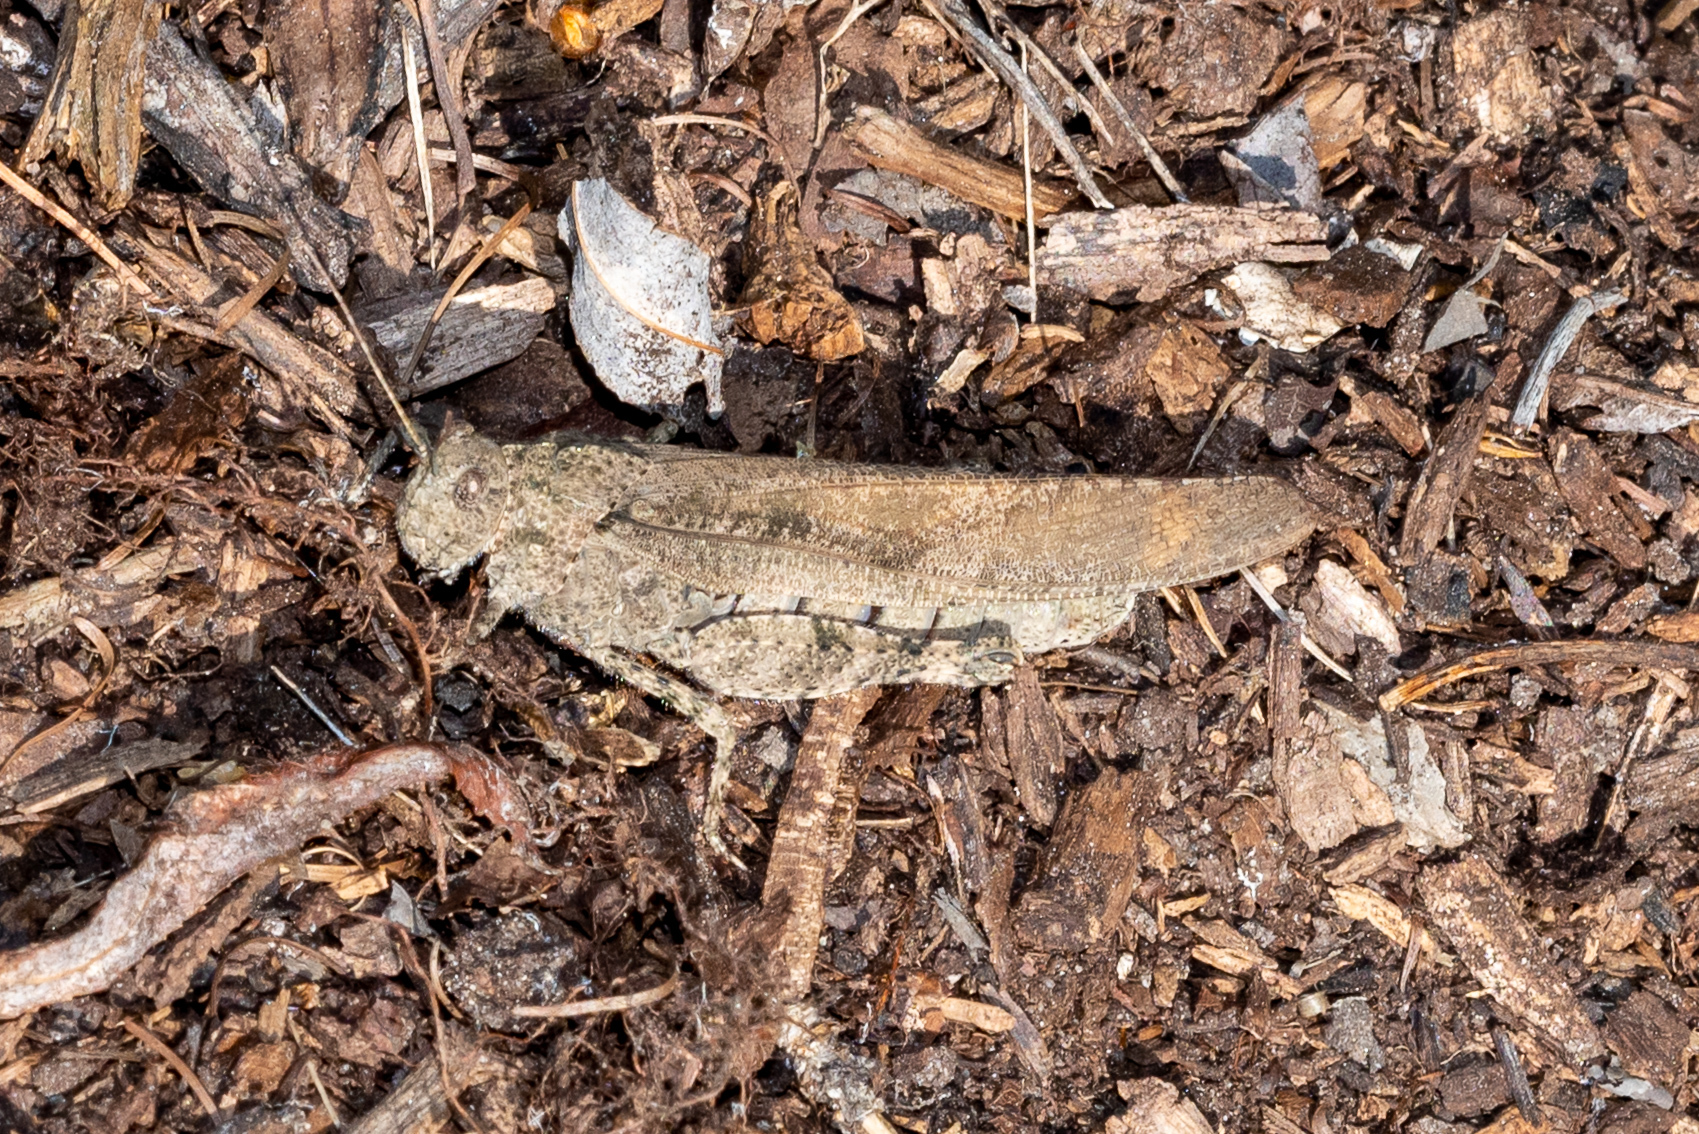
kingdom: Animalia
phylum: Arthropoda
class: Insecta
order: Orthoptera
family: Acrididae
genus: Dissosteira
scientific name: Dissosteira carolina
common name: Carolina grasshopper
